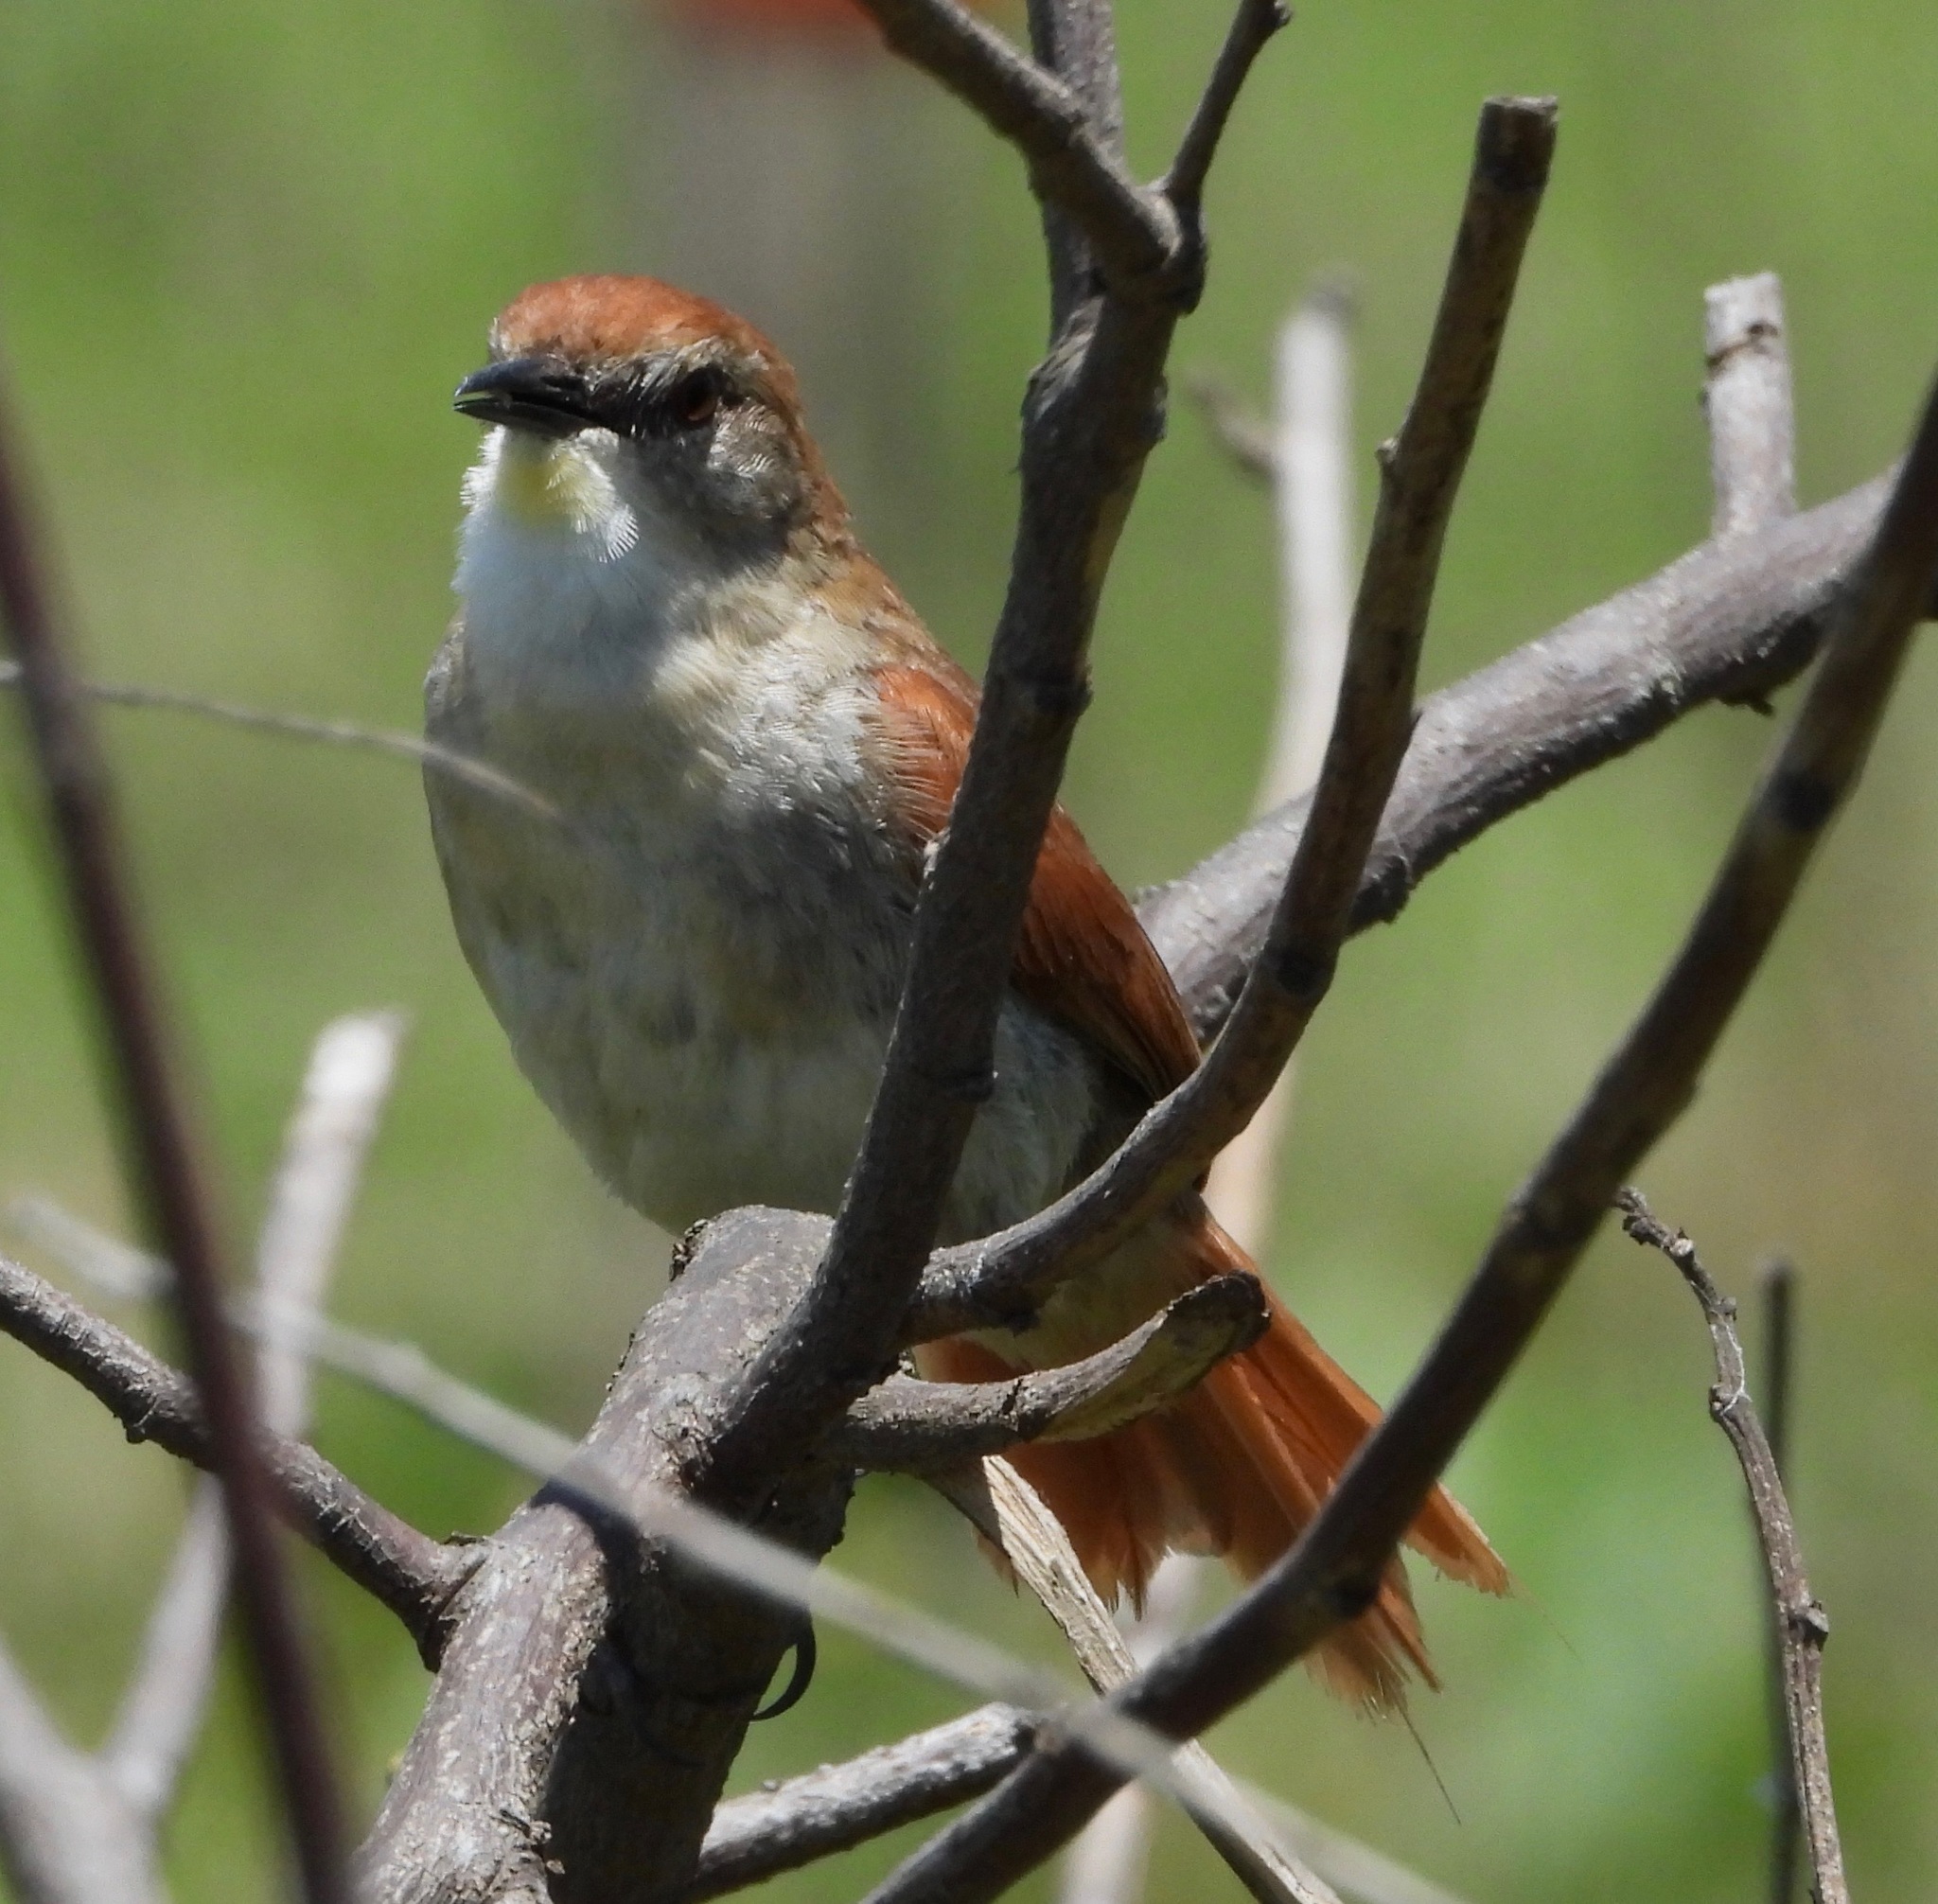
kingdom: Animalia
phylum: Chordata
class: Aves
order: Passeriformes
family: Furnariidae
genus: Certhiaxis
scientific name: Certhiaxis cinnamomeus
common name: Yellow-chinned spinetail
